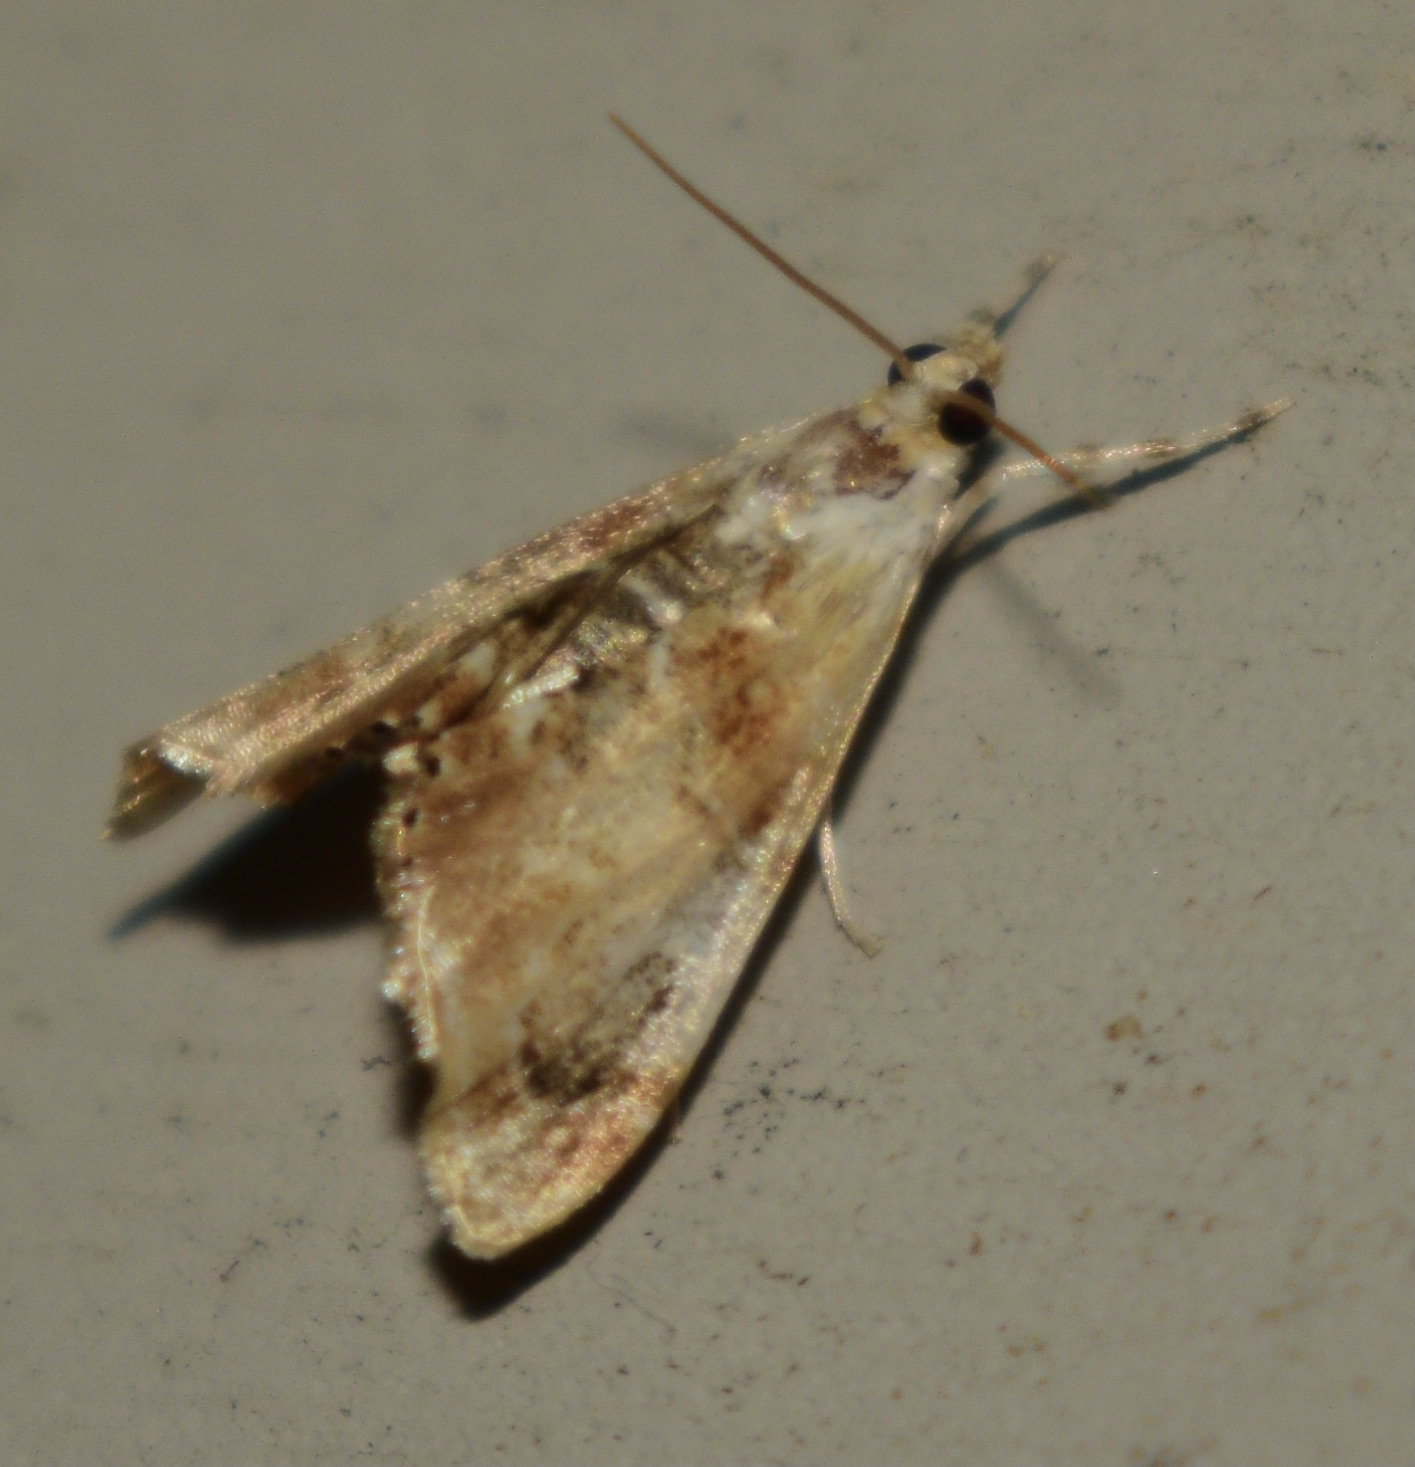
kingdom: Animalia
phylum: Arthropoda
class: Insecta
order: Lepidoptera
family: Crambidae
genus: Dicymolomia
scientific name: Dicymolomia julianalis
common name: Julia's dicymolomia moth
